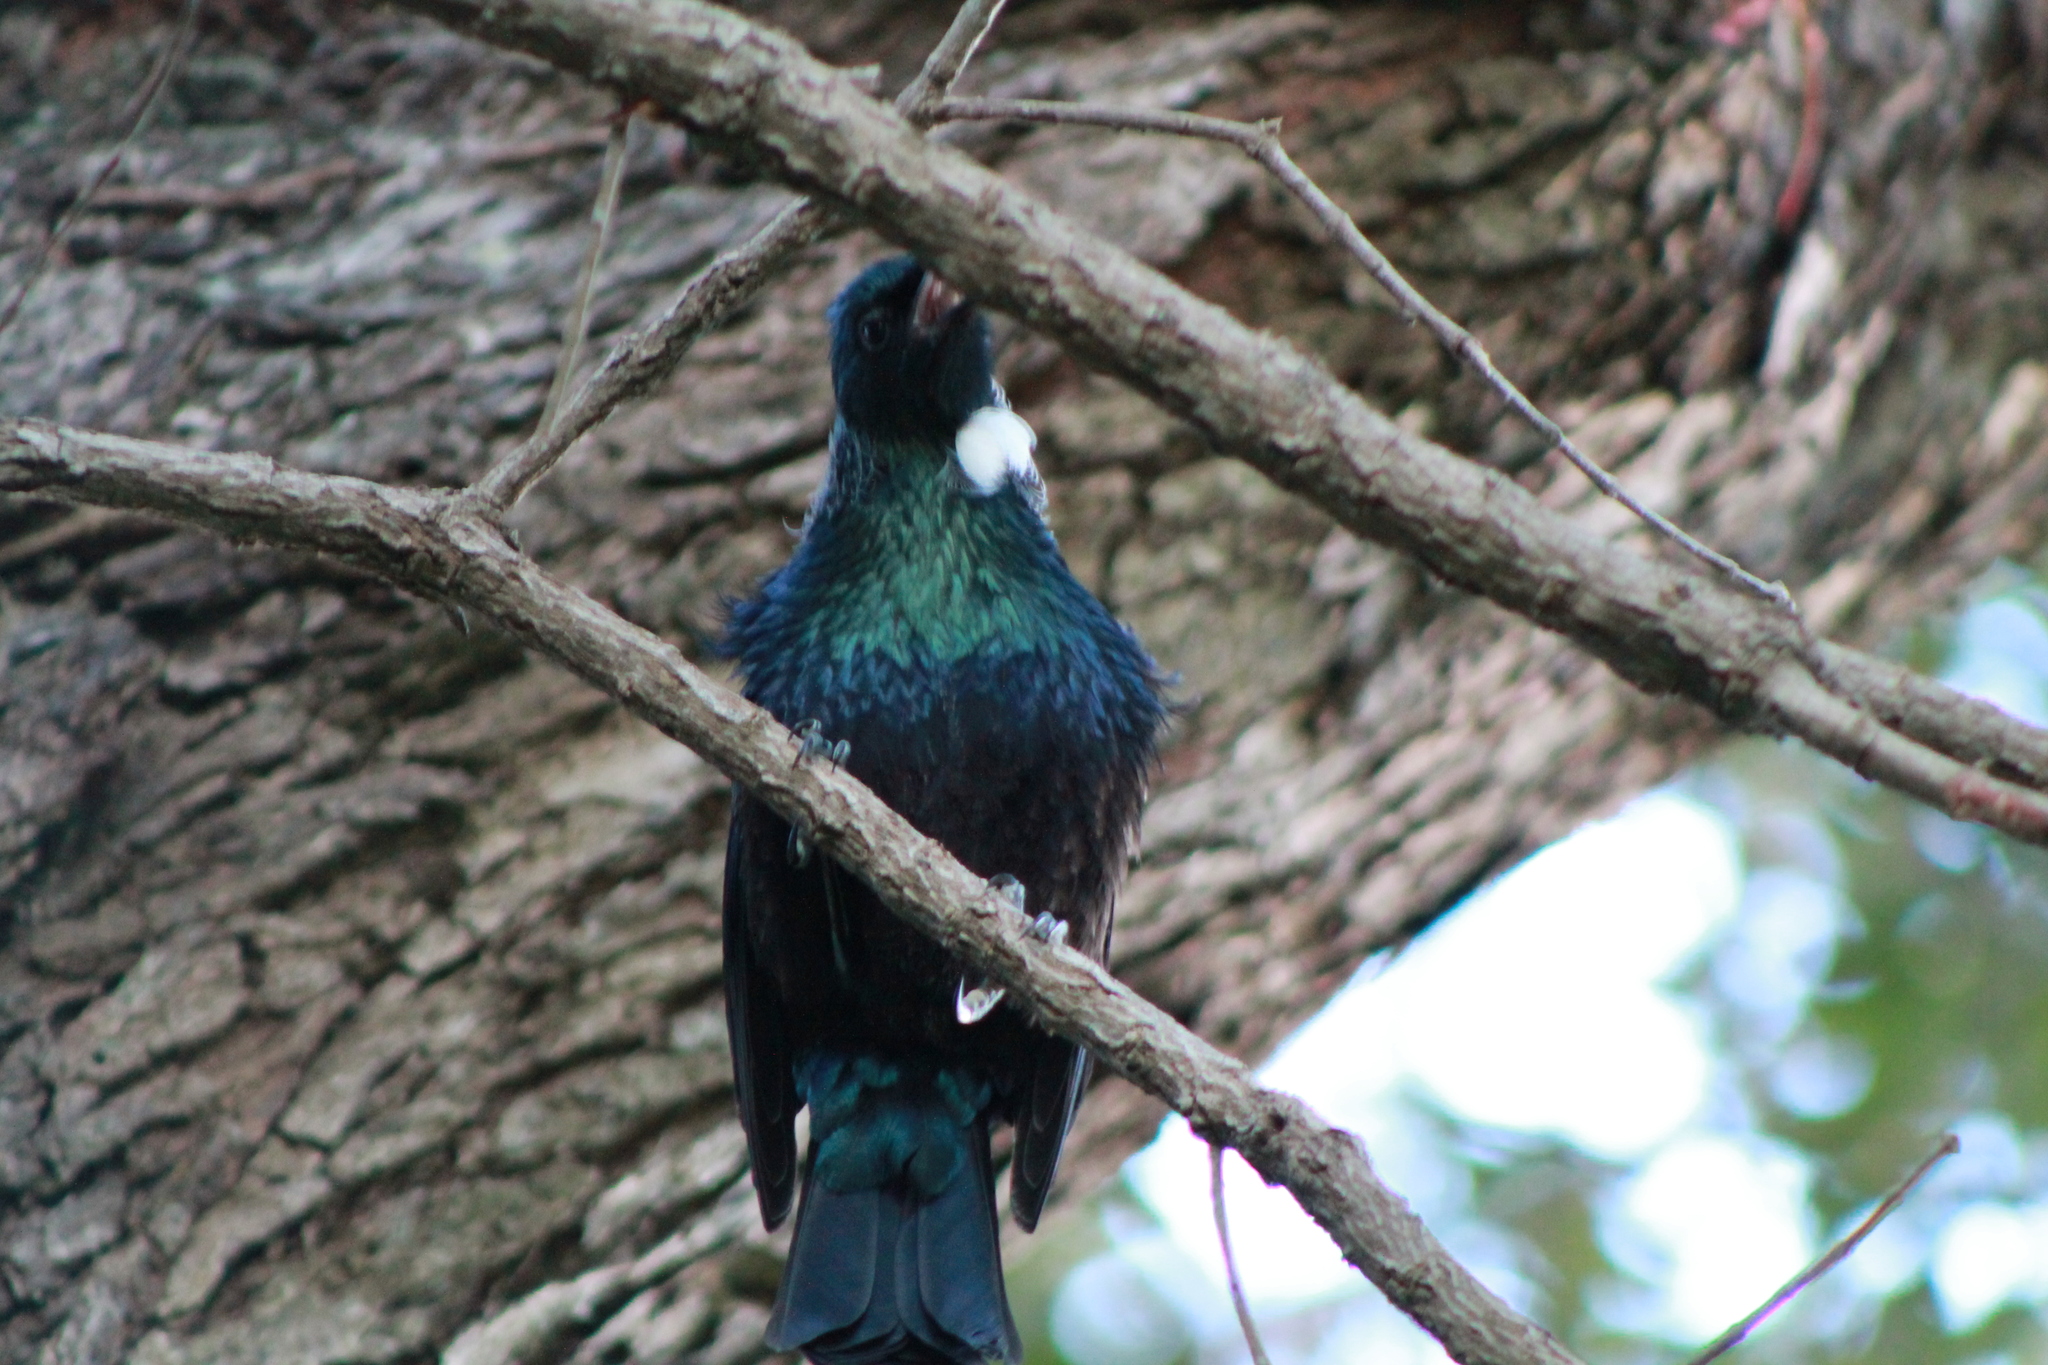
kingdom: Animalia
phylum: Chordata
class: Aves
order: Passeriformes
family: Meliphagidae
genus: Prosthemadera
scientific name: Prosthemadera novaeseelandiae
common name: Tui
